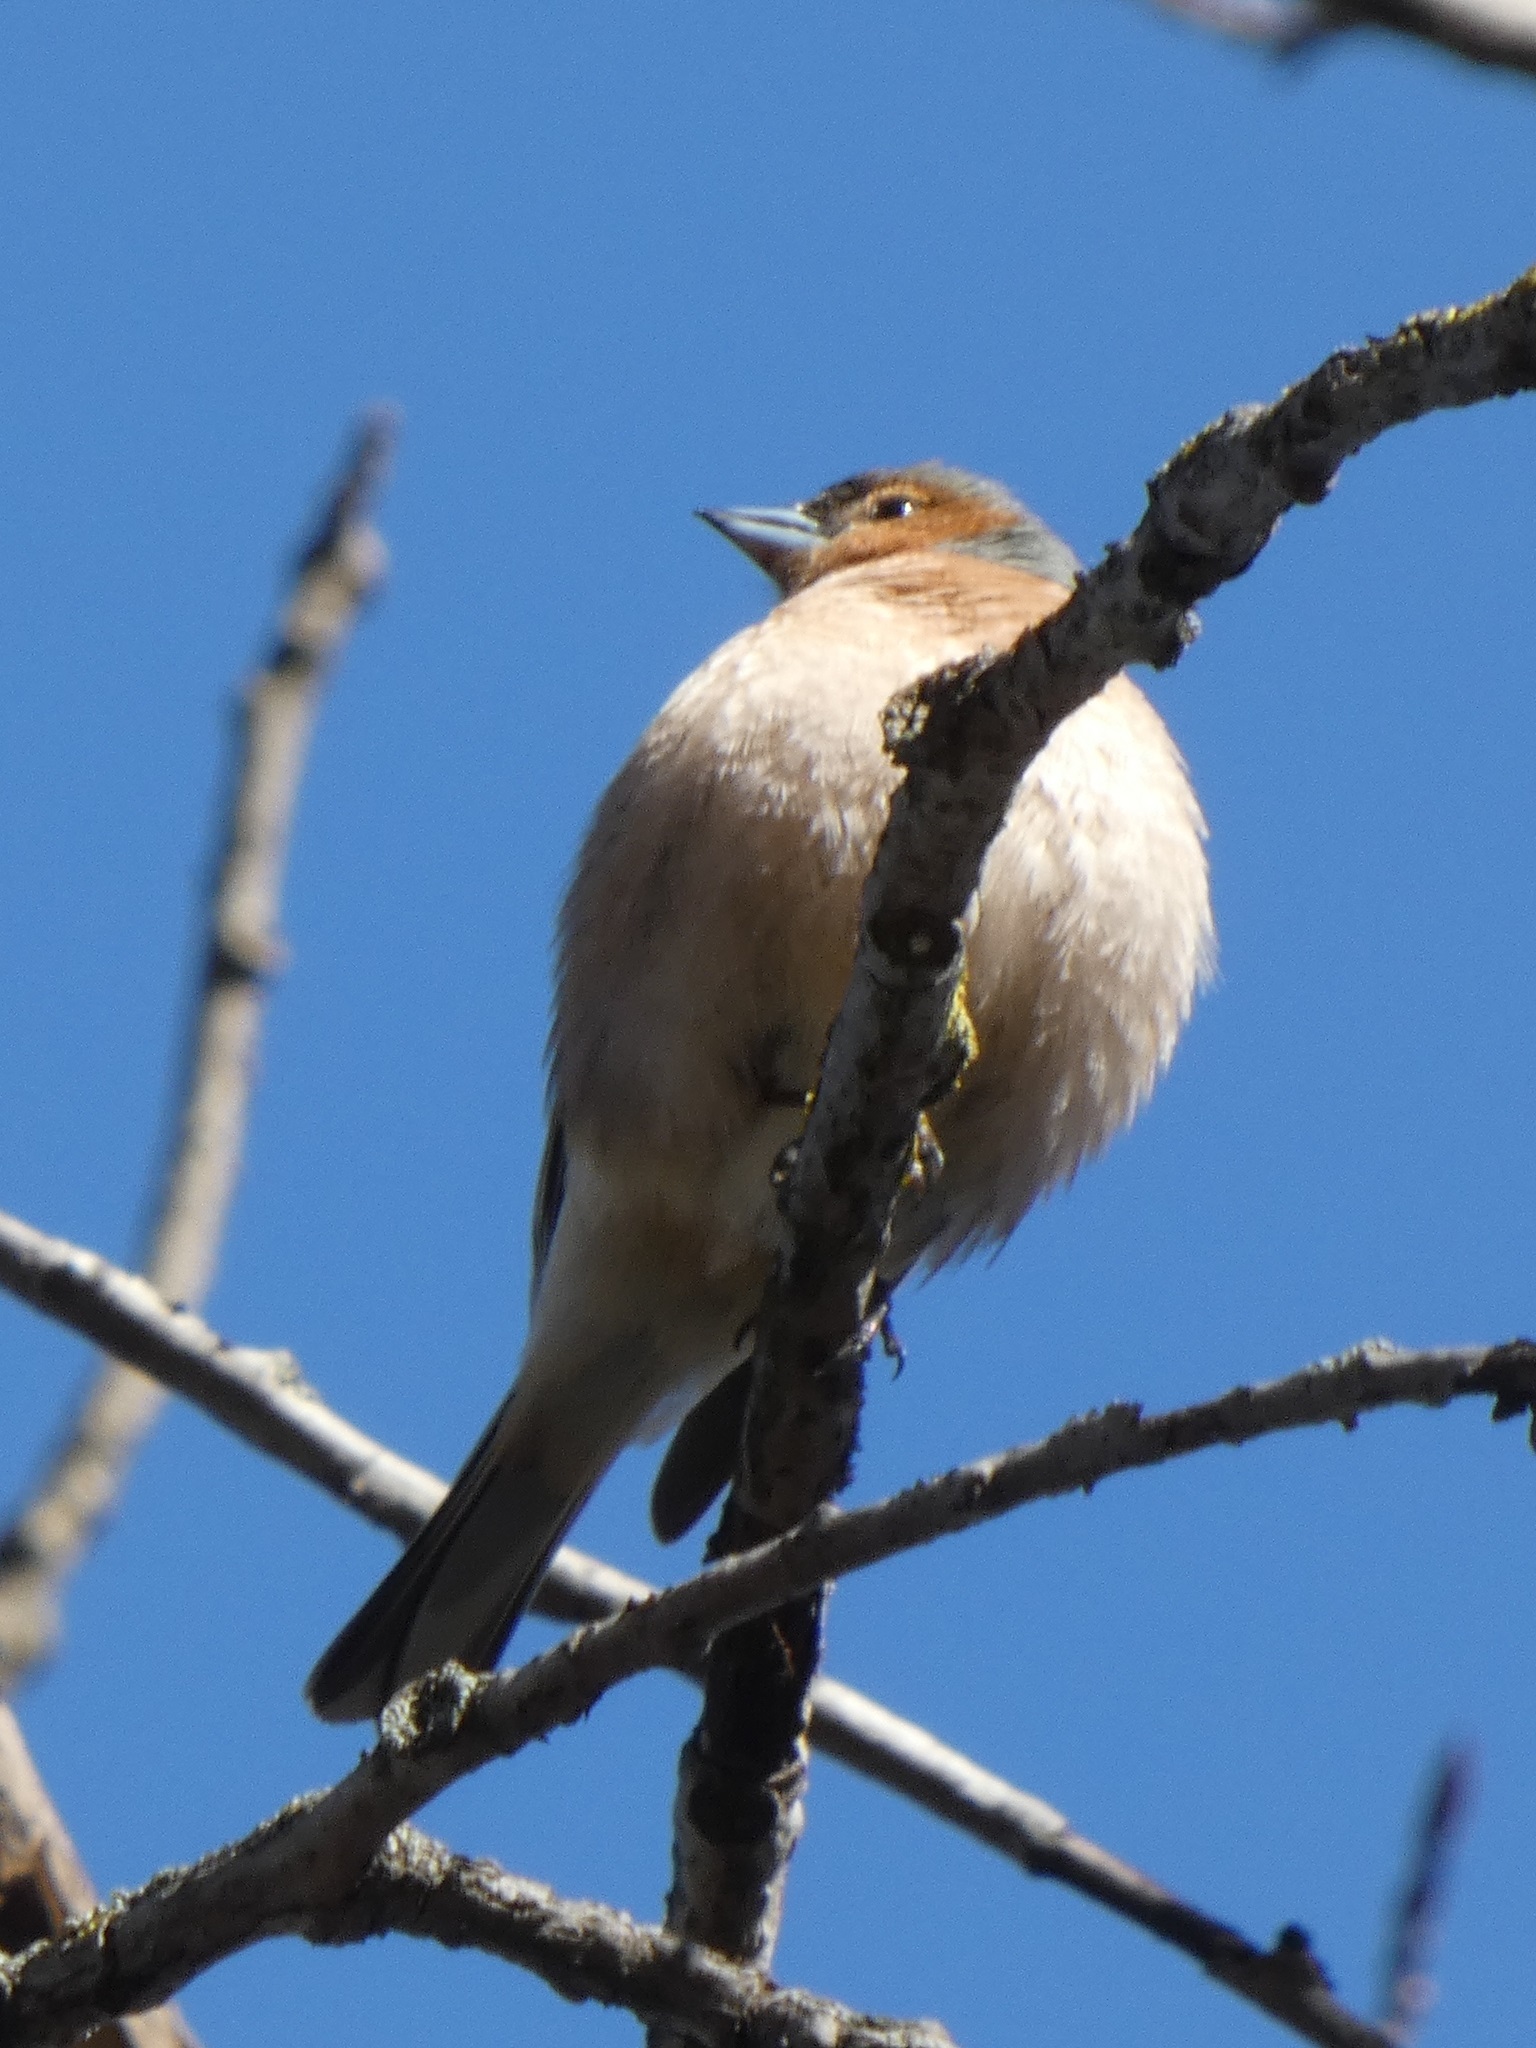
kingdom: Animalia
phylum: Chordata
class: Aves
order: Passeriformes
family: Fringillidae
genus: Fringilla
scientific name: Fringilla coelebs
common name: Common chaffinch
